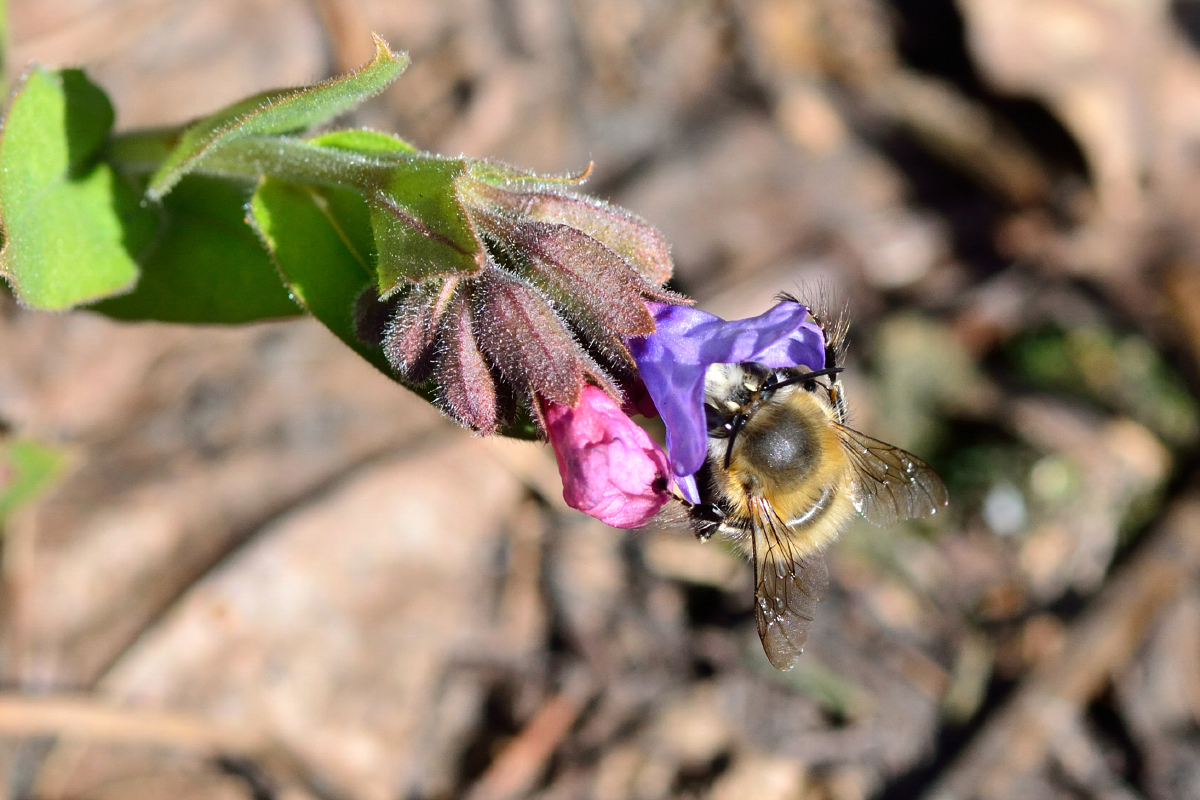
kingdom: Animalia
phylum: Arthropoda
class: Insecta
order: Hymenoptera
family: Apidae
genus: Anthophora
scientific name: Anthophora plumipes
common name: Hairy-footed flower bee
